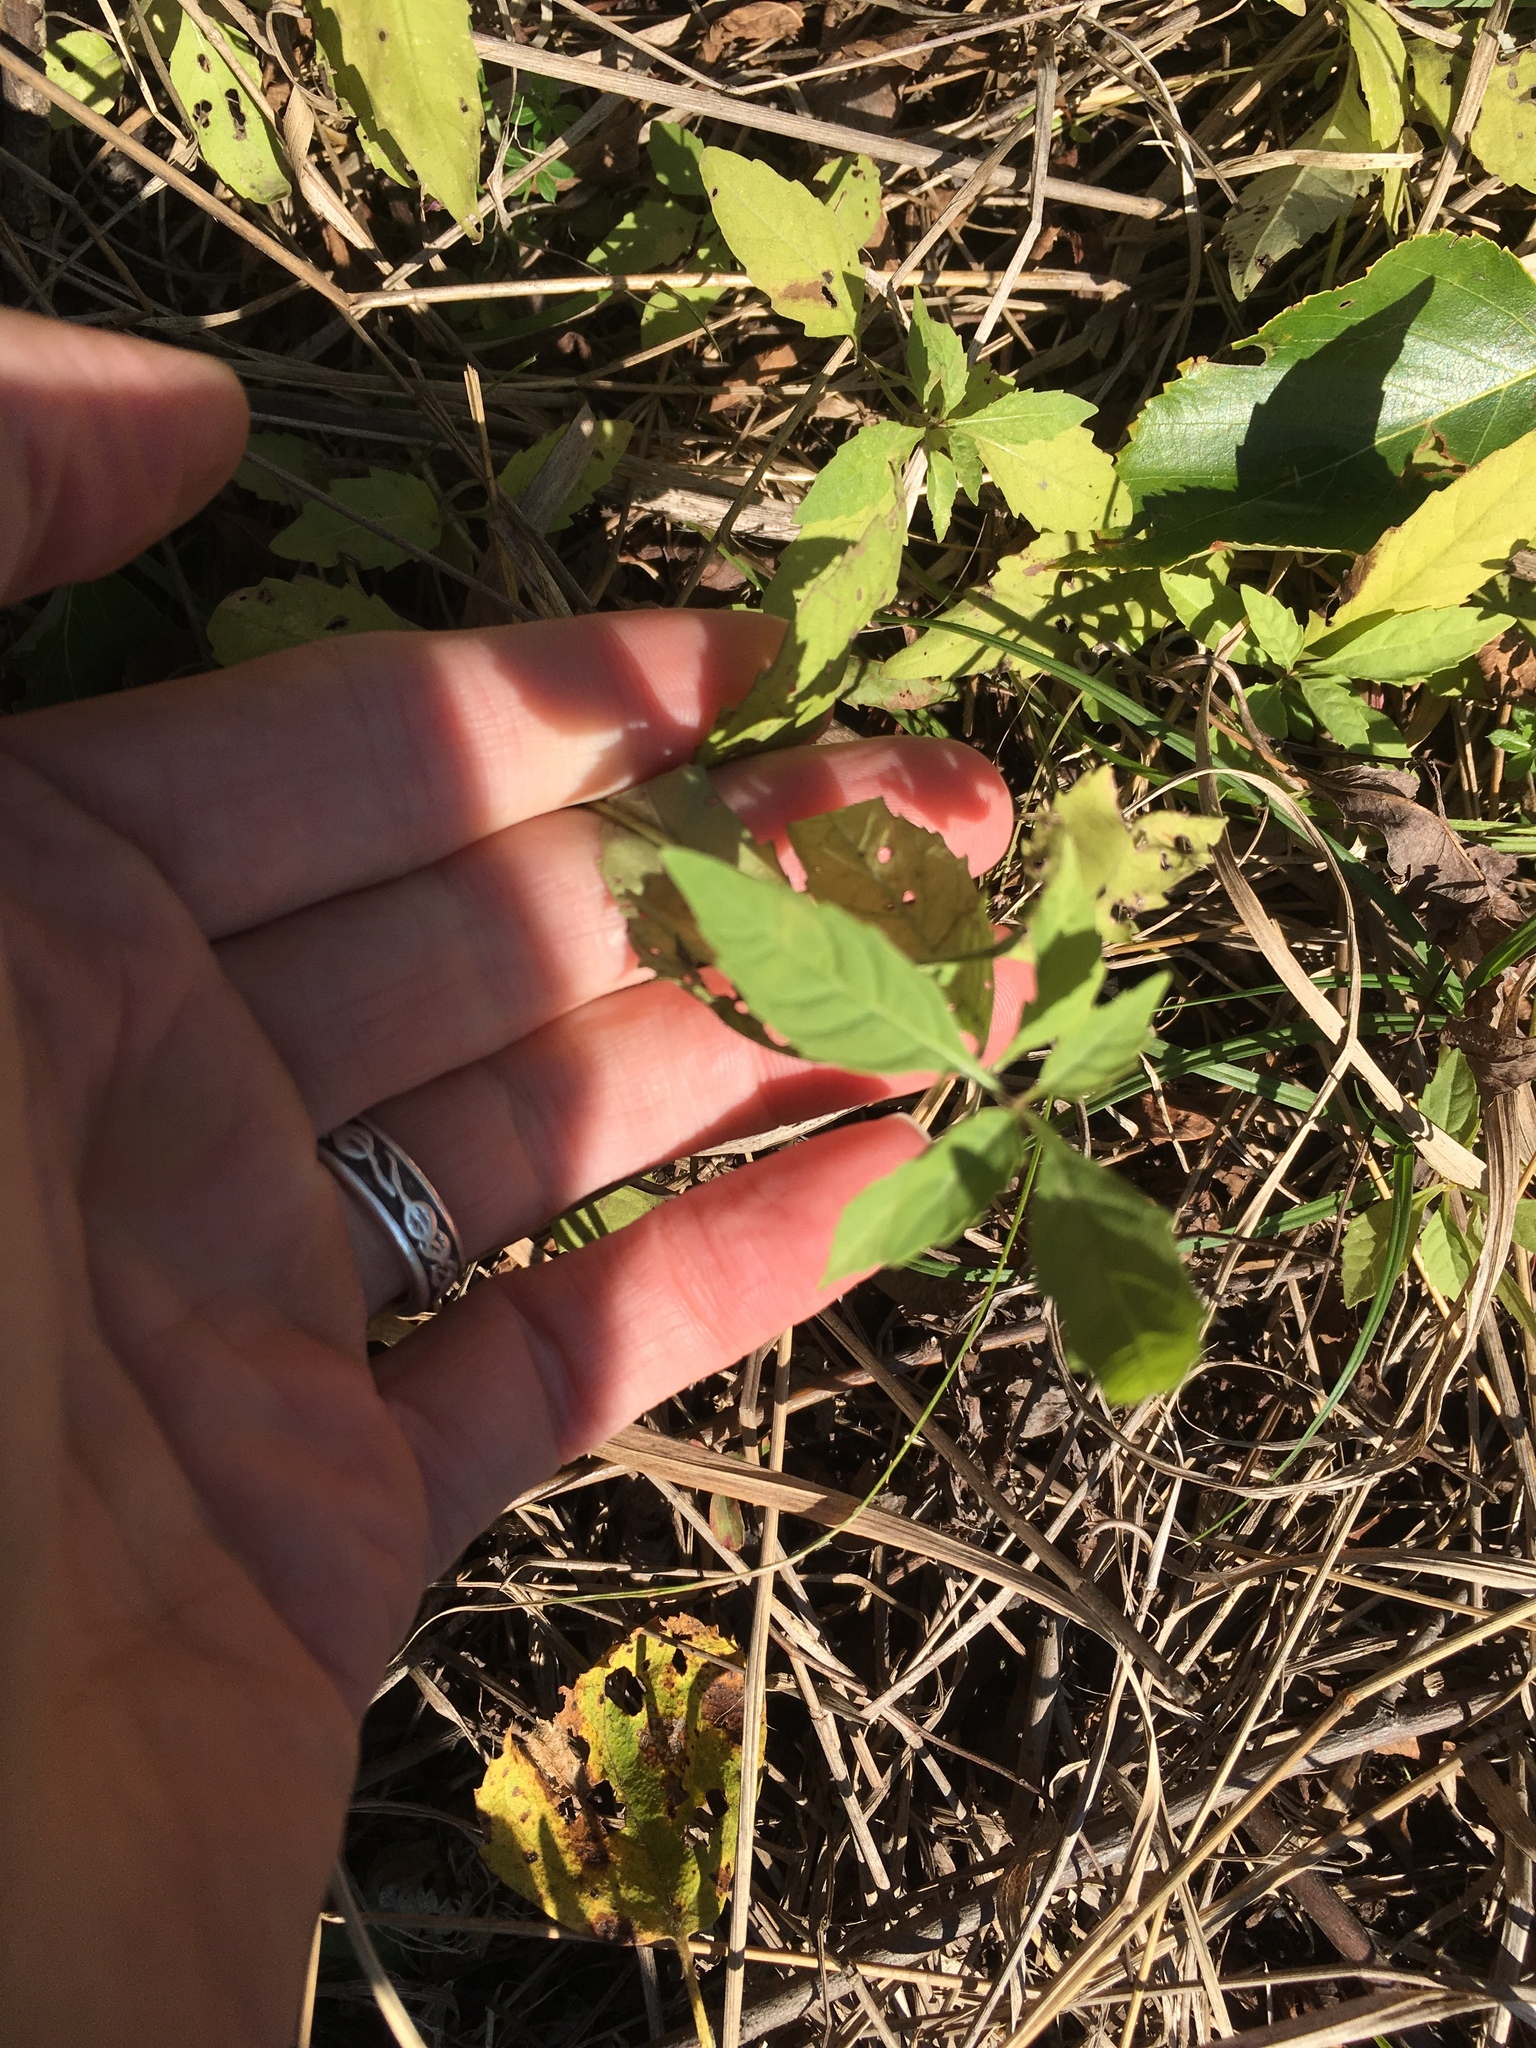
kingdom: Plantae
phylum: Tracheophyta
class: Magnoliopsida
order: Lamiales
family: Lamiaceae
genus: Lycopus
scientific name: Lycopus uniflorus
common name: Northern bugleweed
